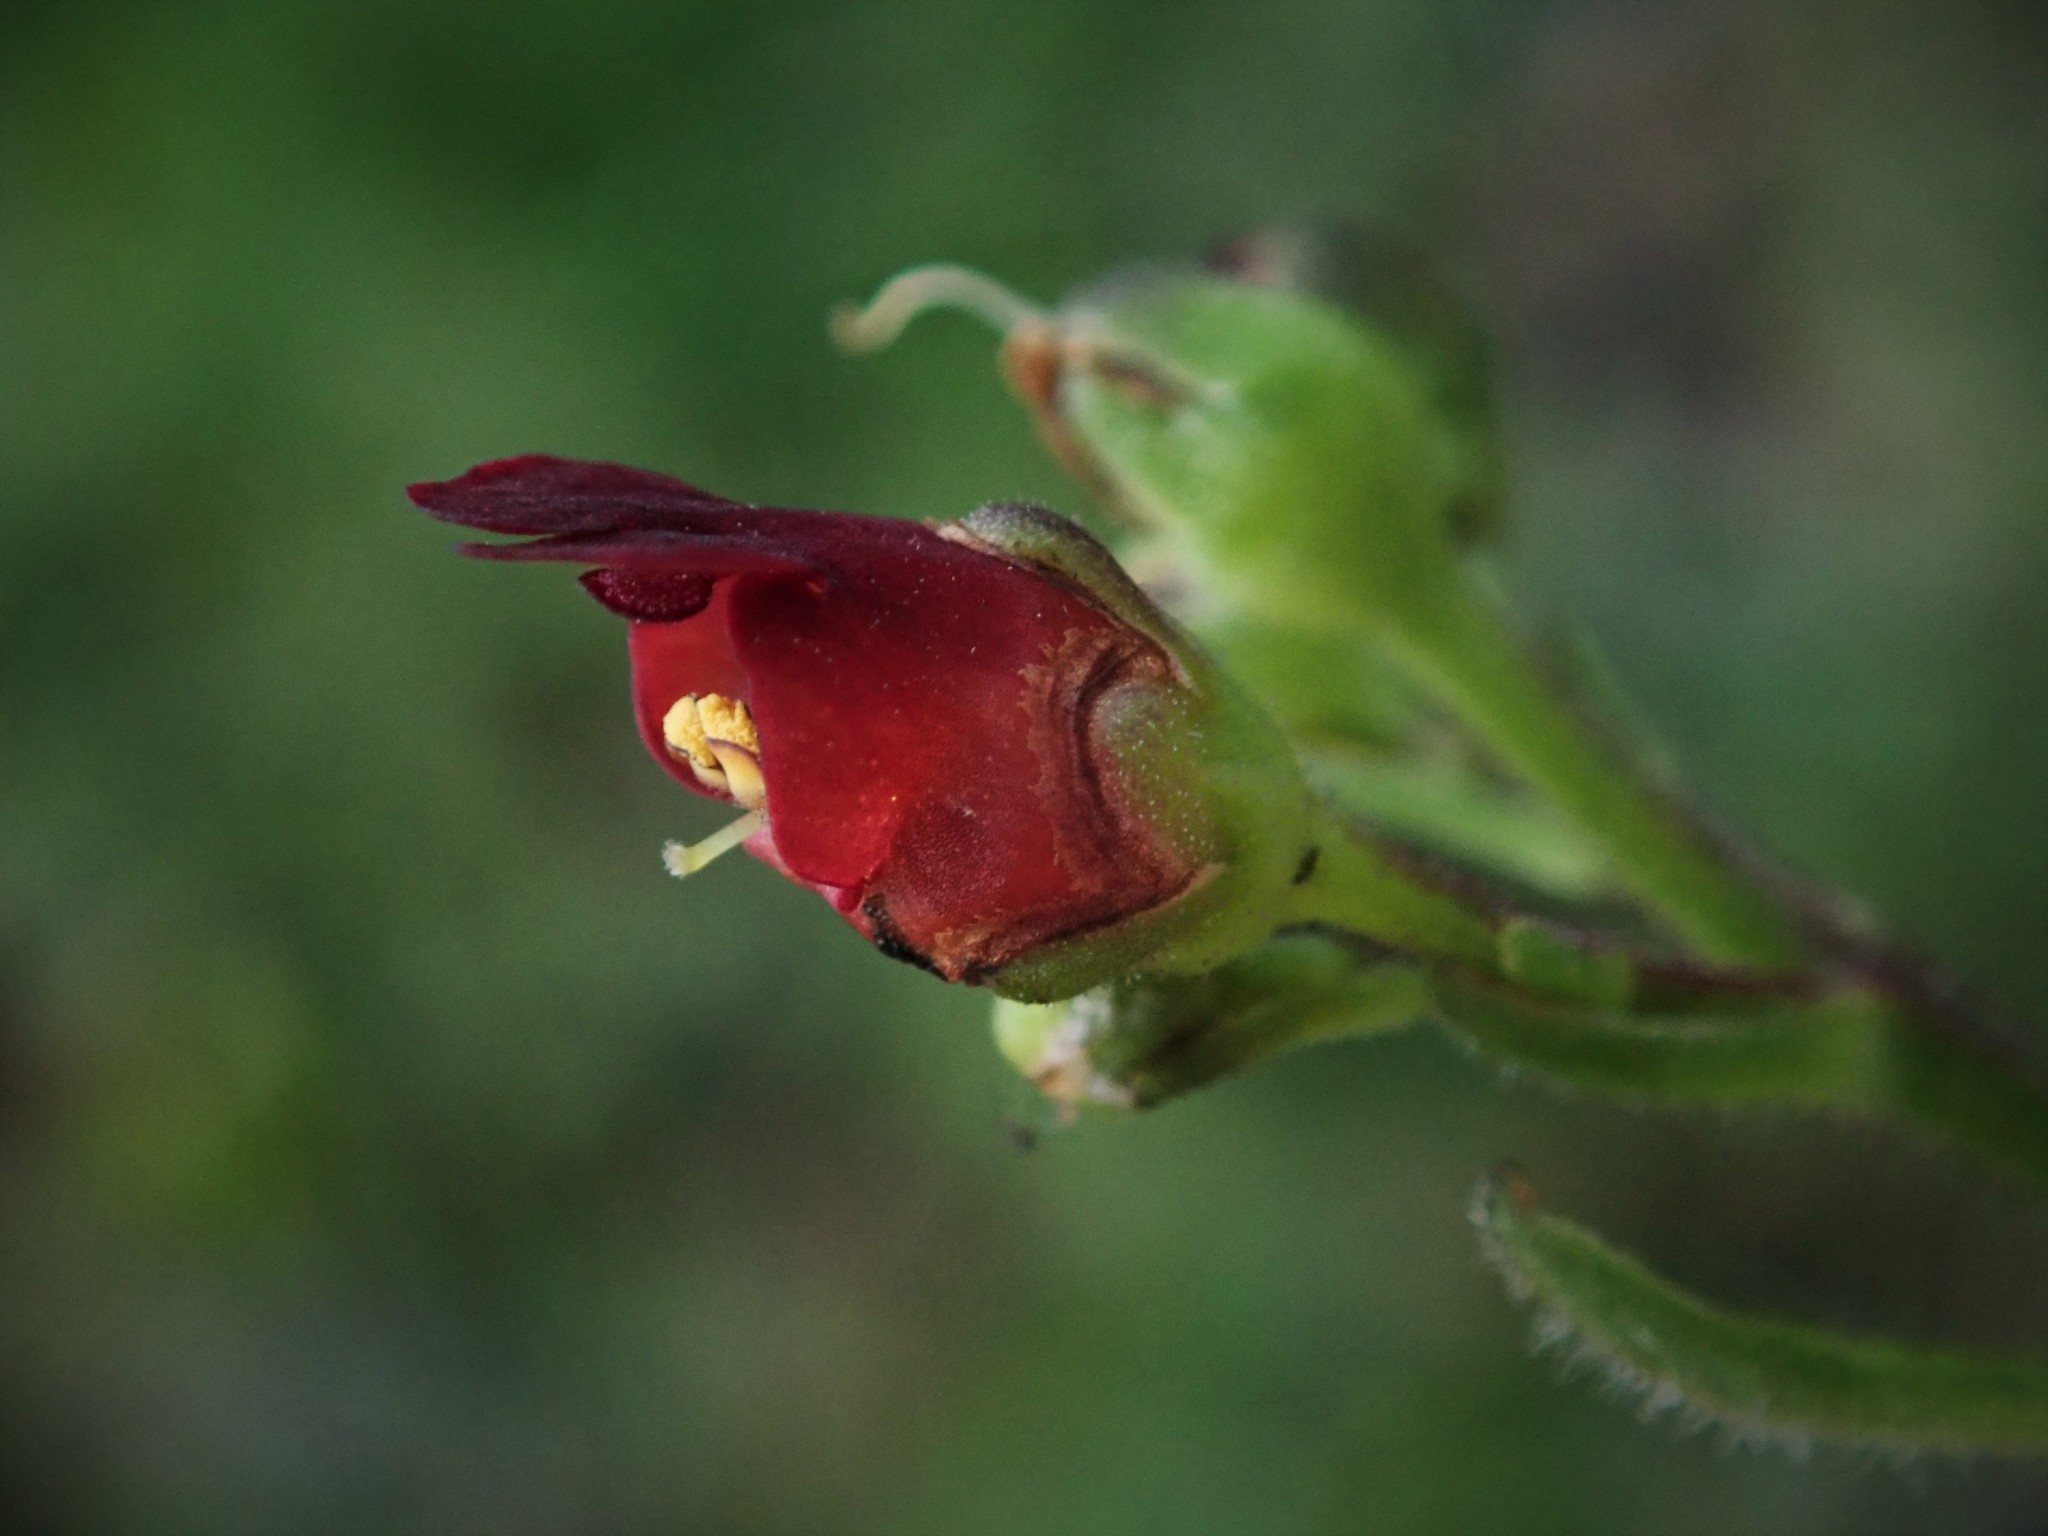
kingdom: Plantae
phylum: Tracheophyta
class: Magnoliopsida
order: Lamiales
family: Scrophulariaceae
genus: Scrophularia
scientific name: Scrophularia auriculata
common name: Water betony
